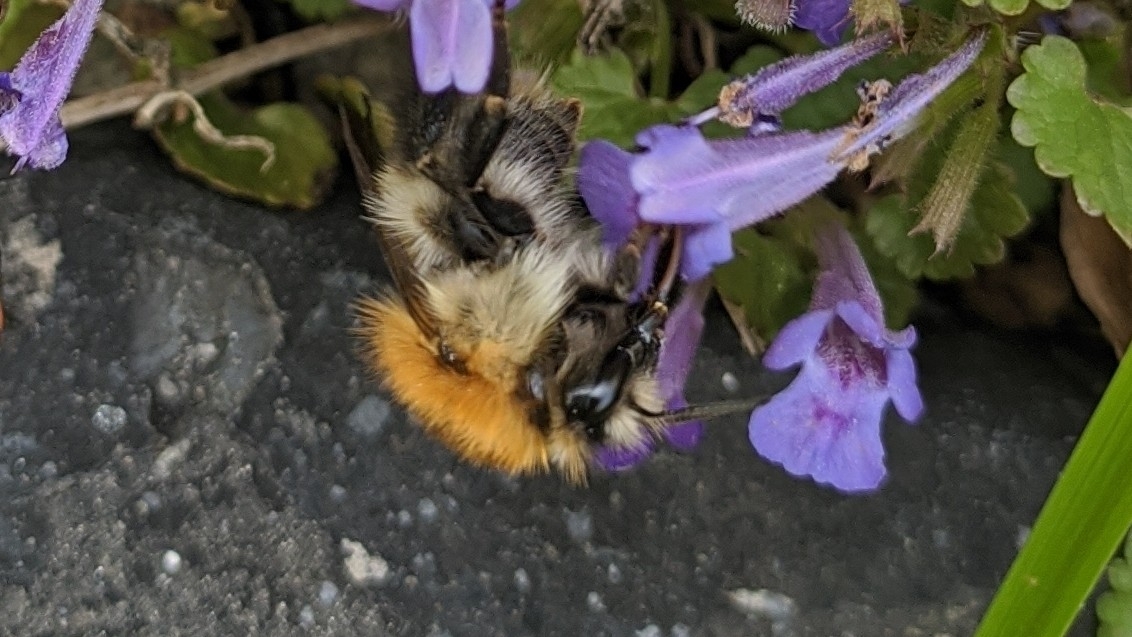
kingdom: Animalia
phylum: Arthropoda
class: Insecta
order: Hymenoptera
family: Apidae
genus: Bombus
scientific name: Bombus pascuorum
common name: Common carder bee
